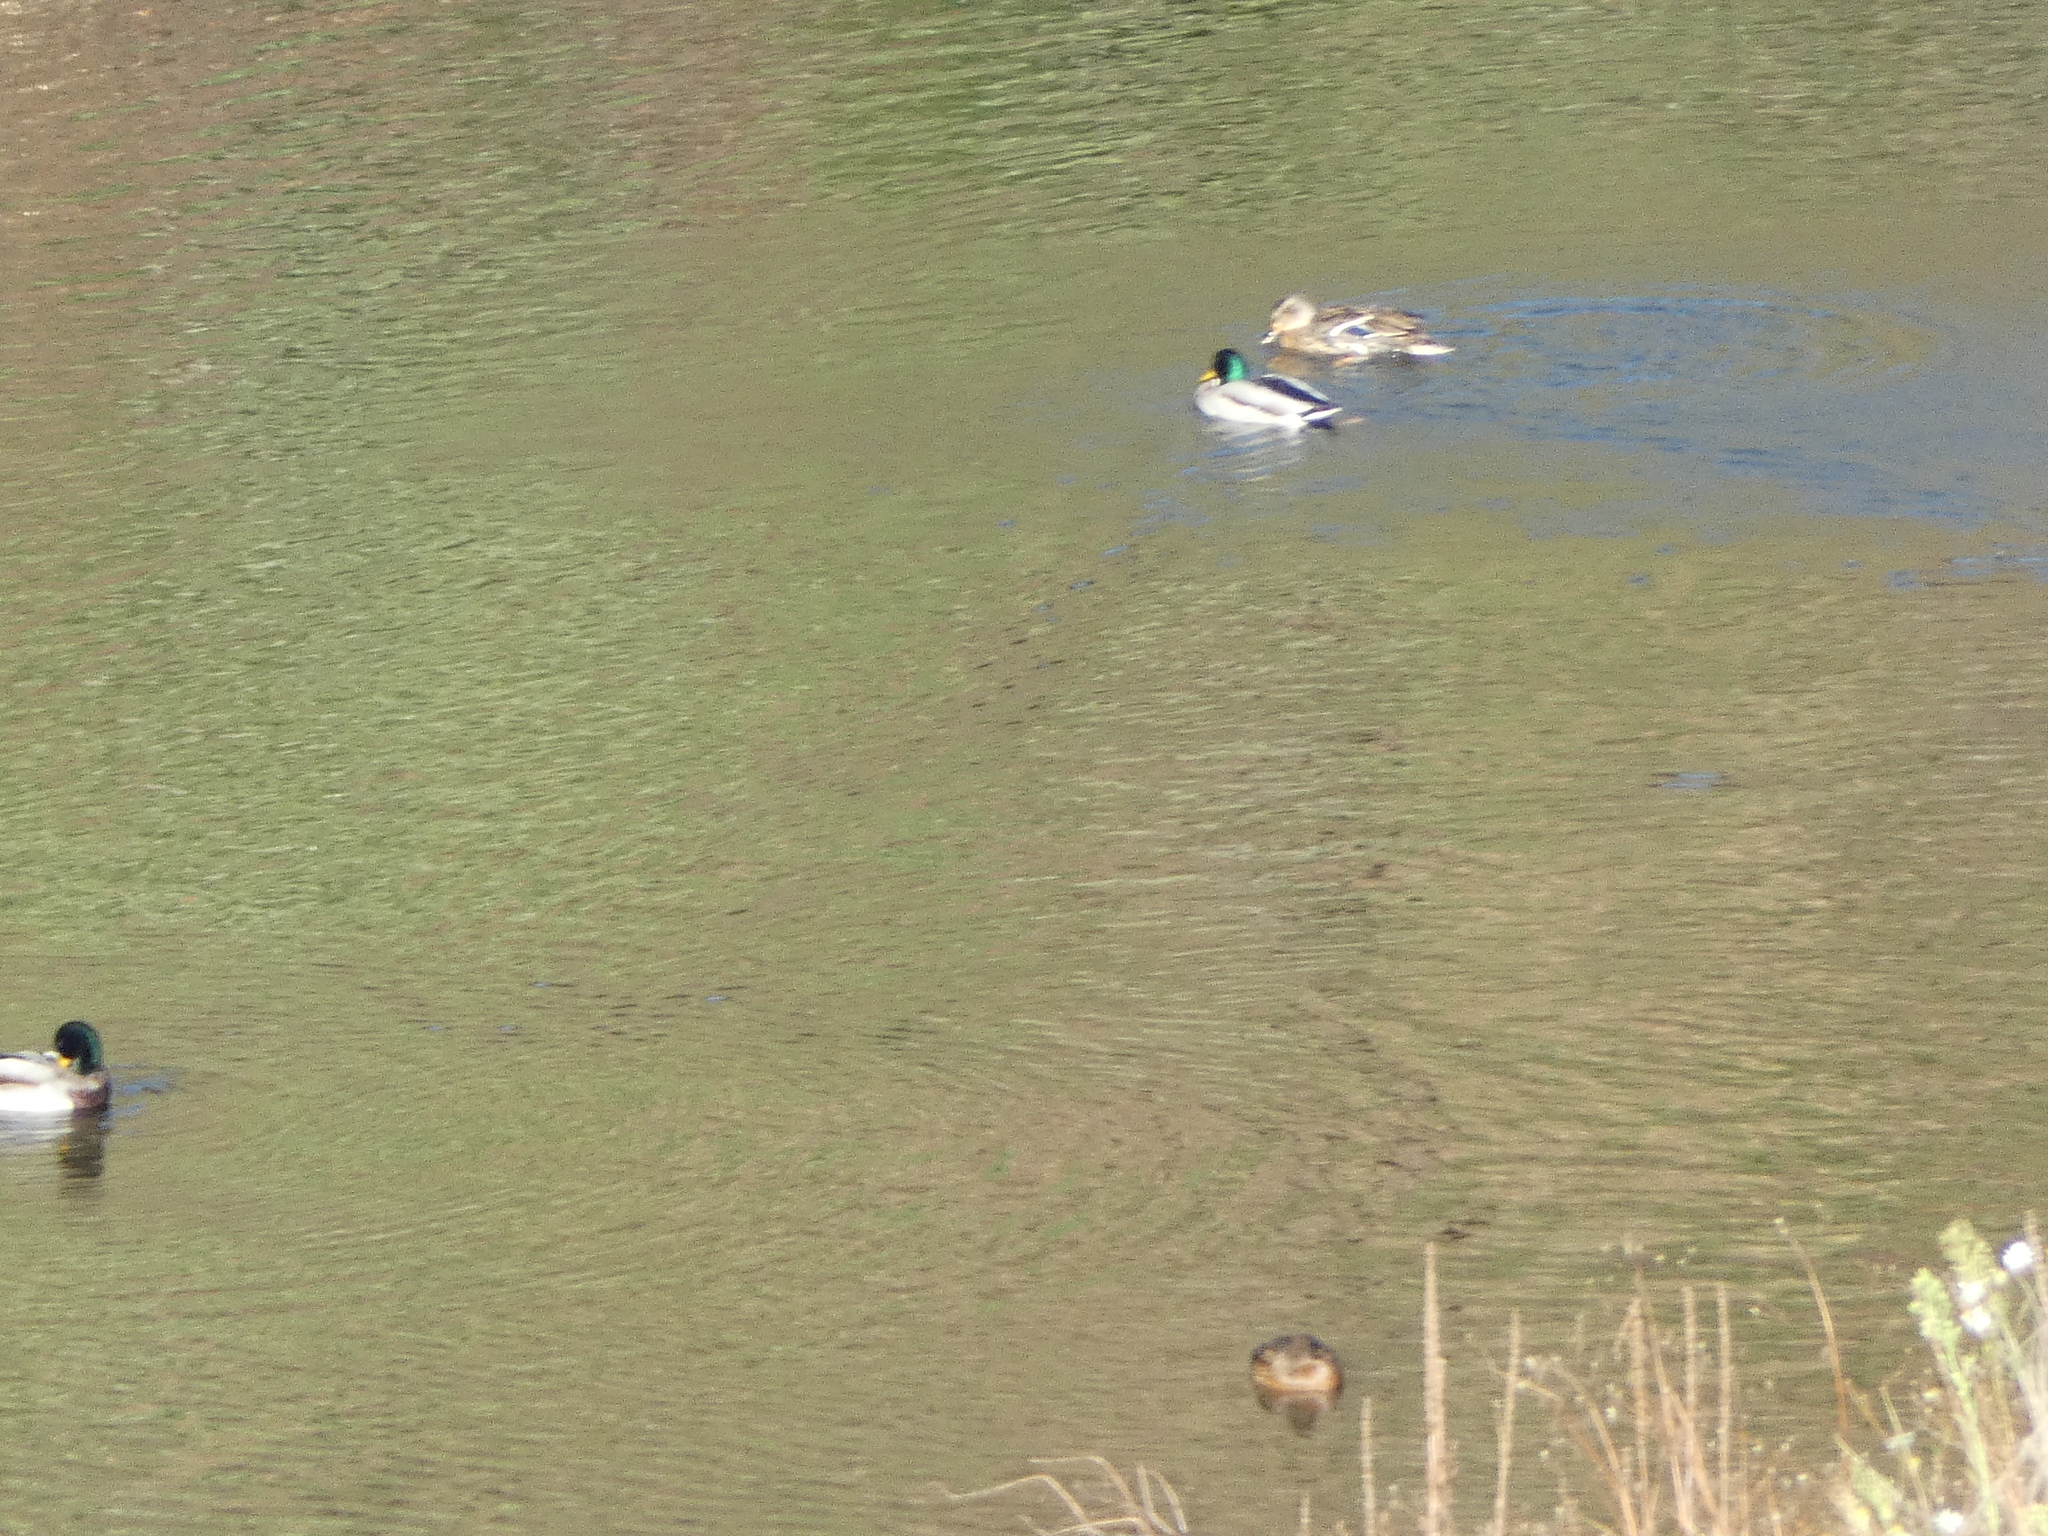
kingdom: Animalia
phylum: Chordata
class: Aves
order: Anseriformes
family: Anatidae
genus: Anas
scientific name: Anas platyrhynchos
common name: Mallard
